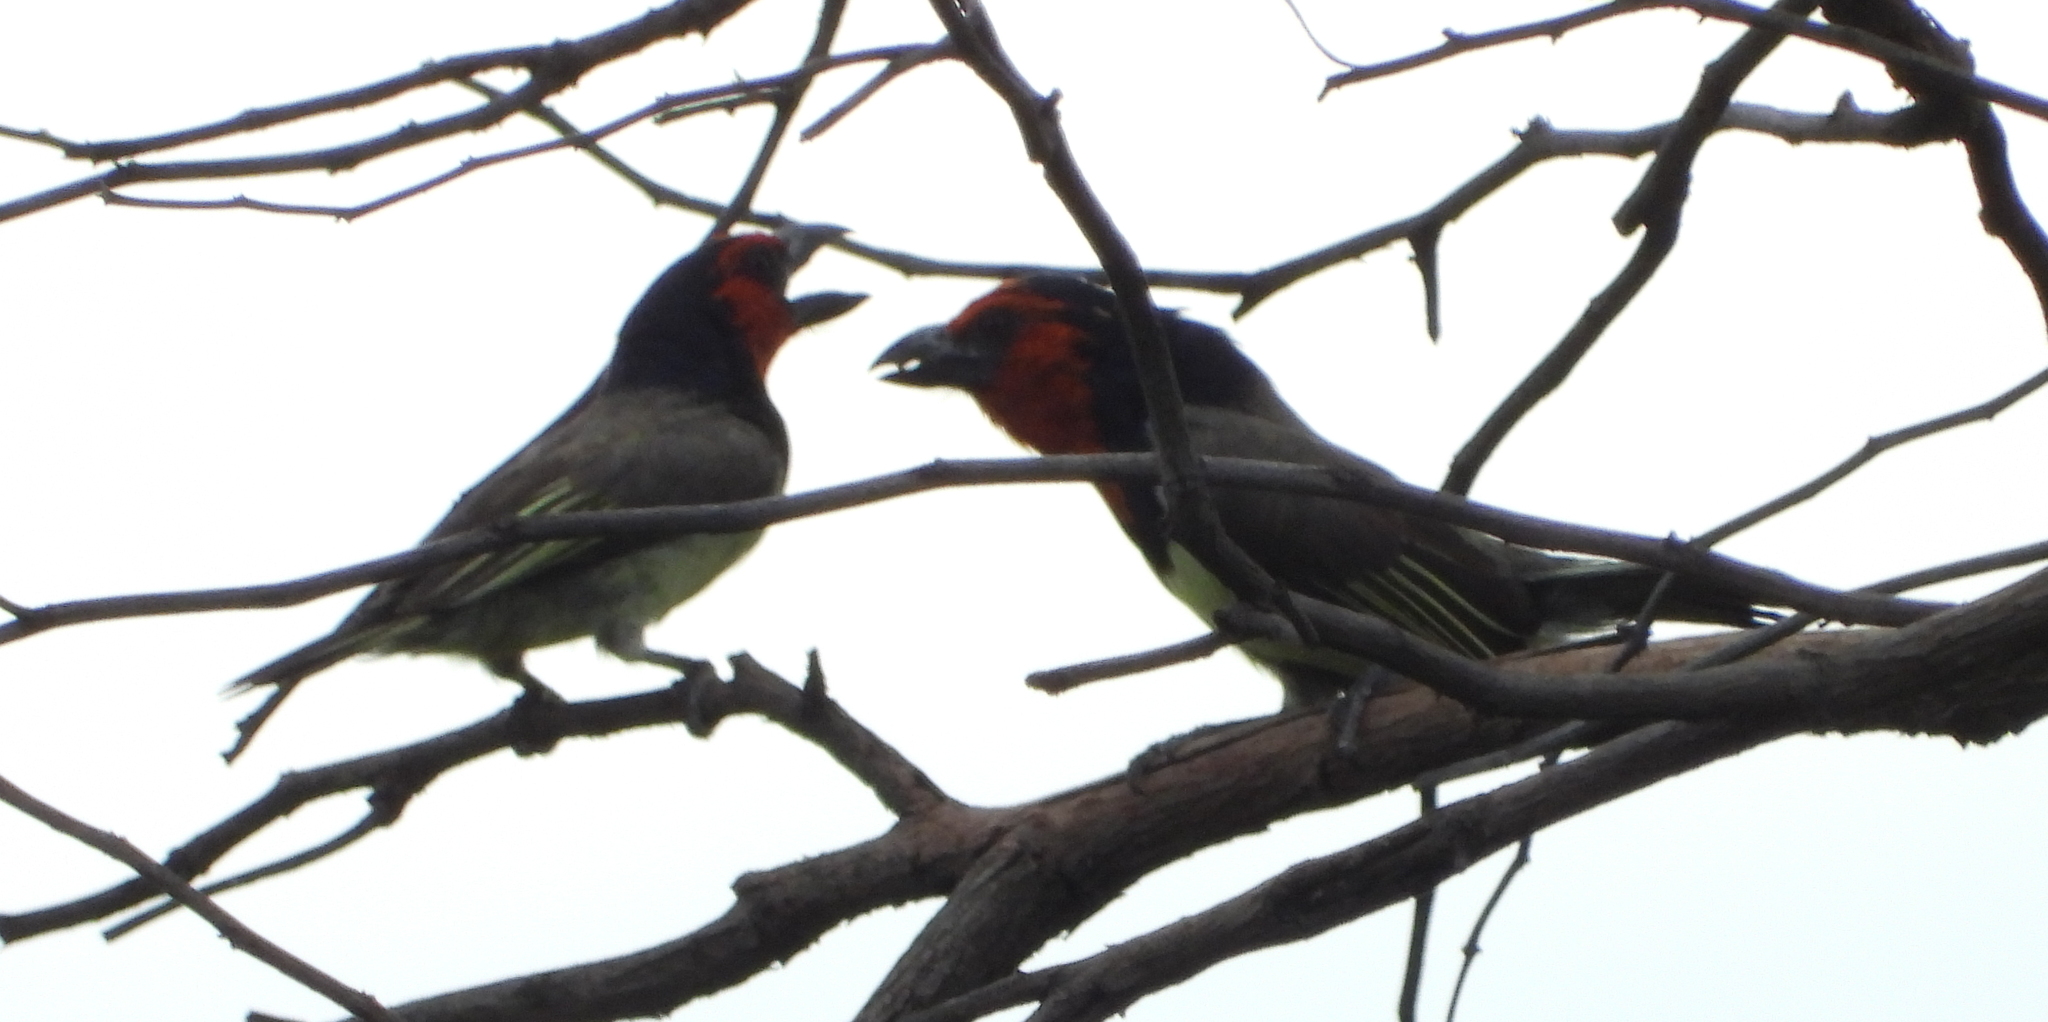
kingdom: Animalia
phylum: Chordata
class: Aves
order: Piciformes
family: Lybiidae
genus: Lybius
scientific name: Lybius torquatus
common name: Black-collared barbet
